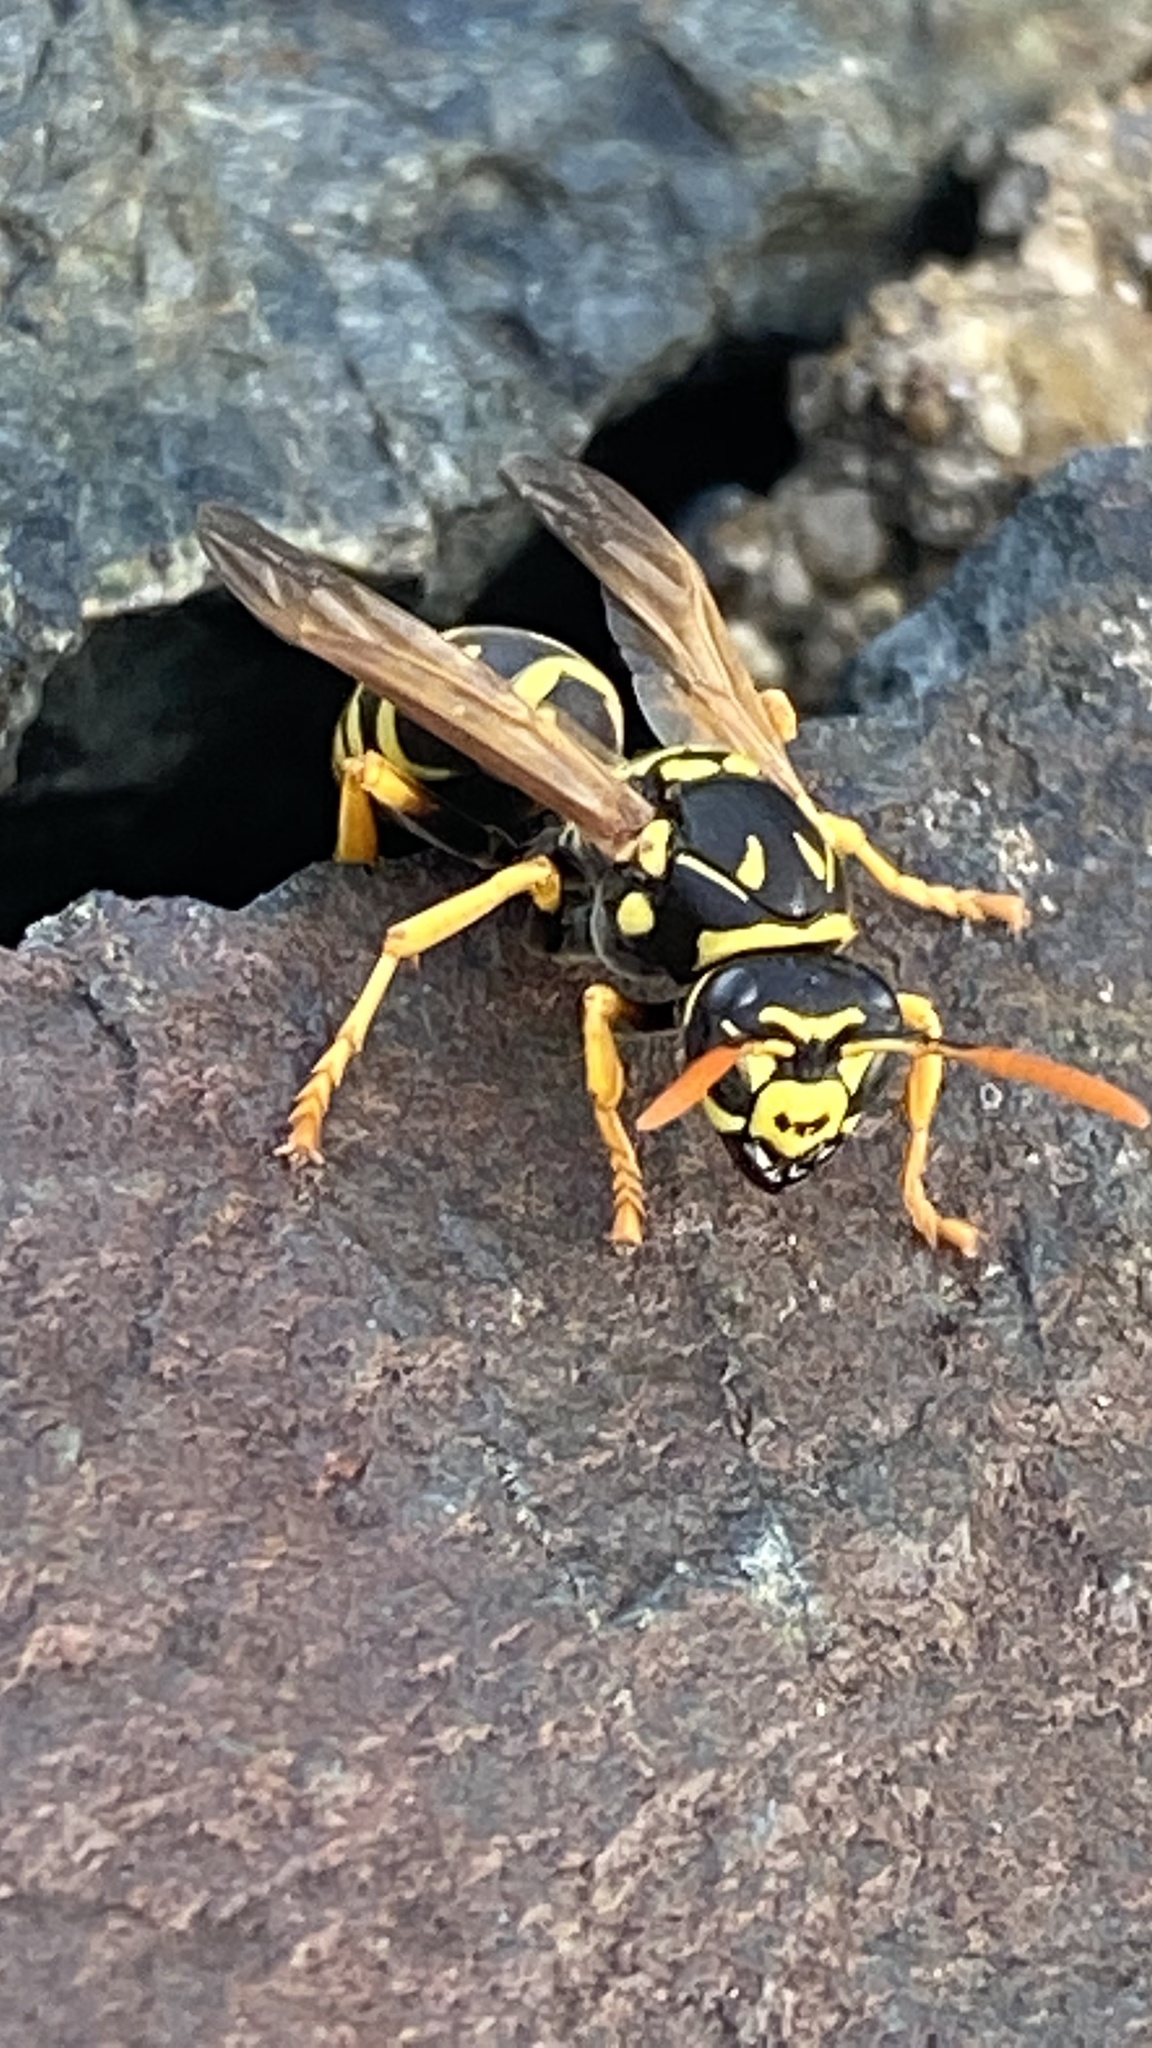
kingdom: Animalia
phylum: Arthropoda
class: Insecta
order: Hymenoptera
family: Eumenidae
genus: Polistes
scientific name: Polistes dominula
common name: Paper wasp
